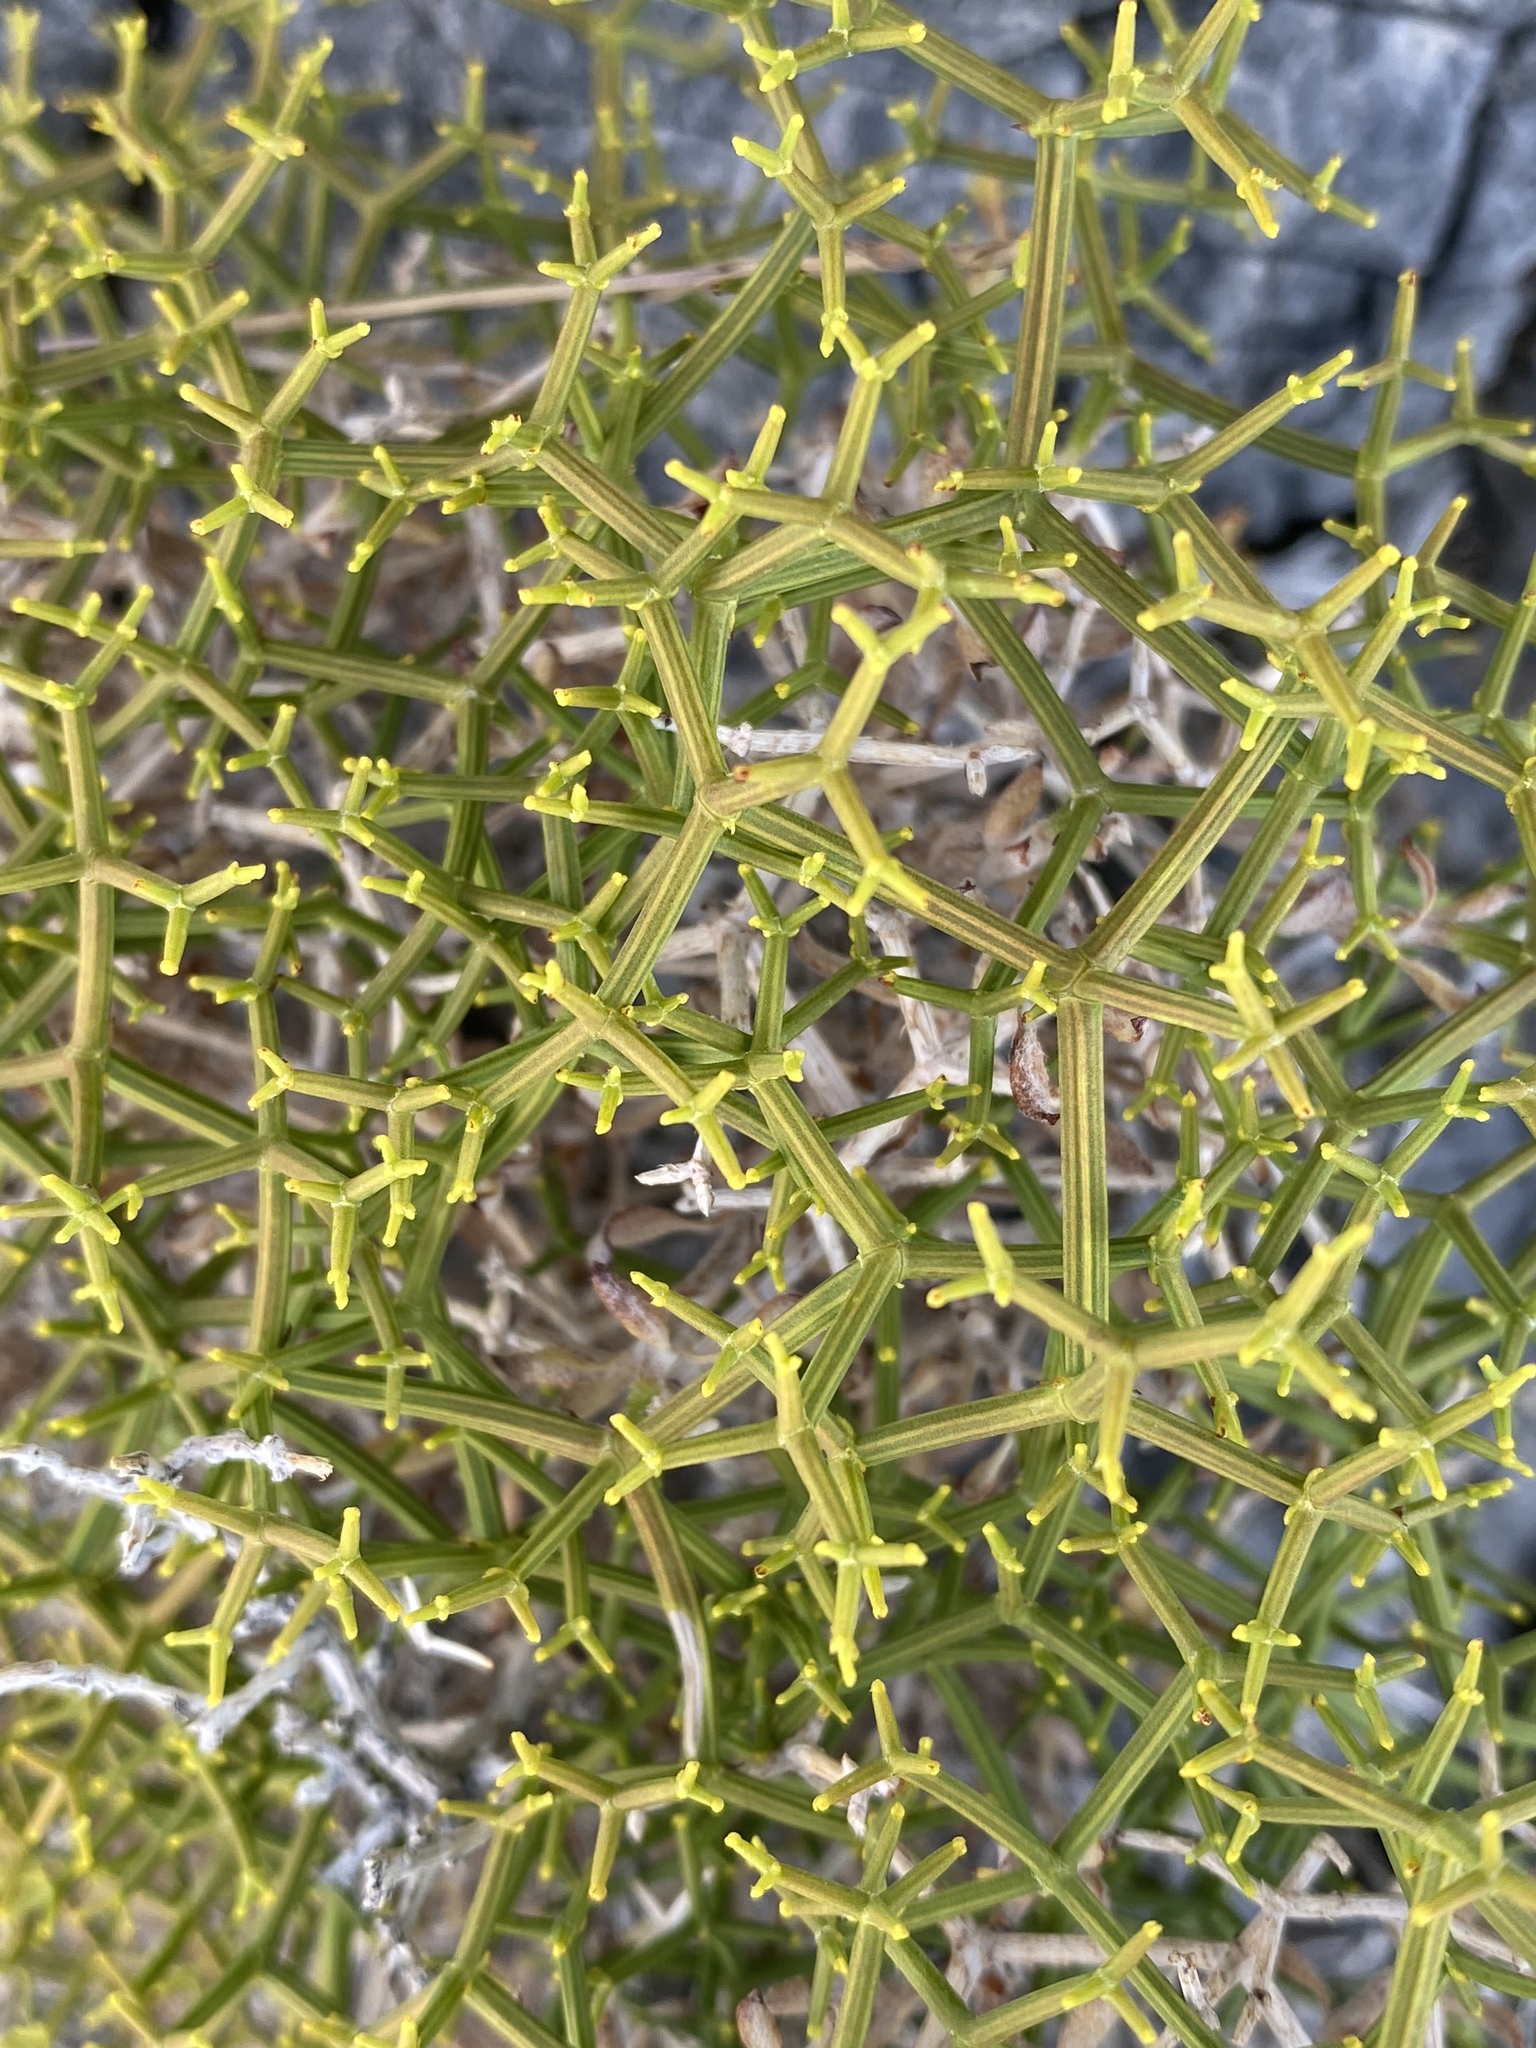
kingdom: Plantae
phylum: Tracheophyta
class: Magnoliopsida
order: Caryophyllales
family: Polygonaceae
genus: Eriogonum
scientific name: Eriogonum heermannii
